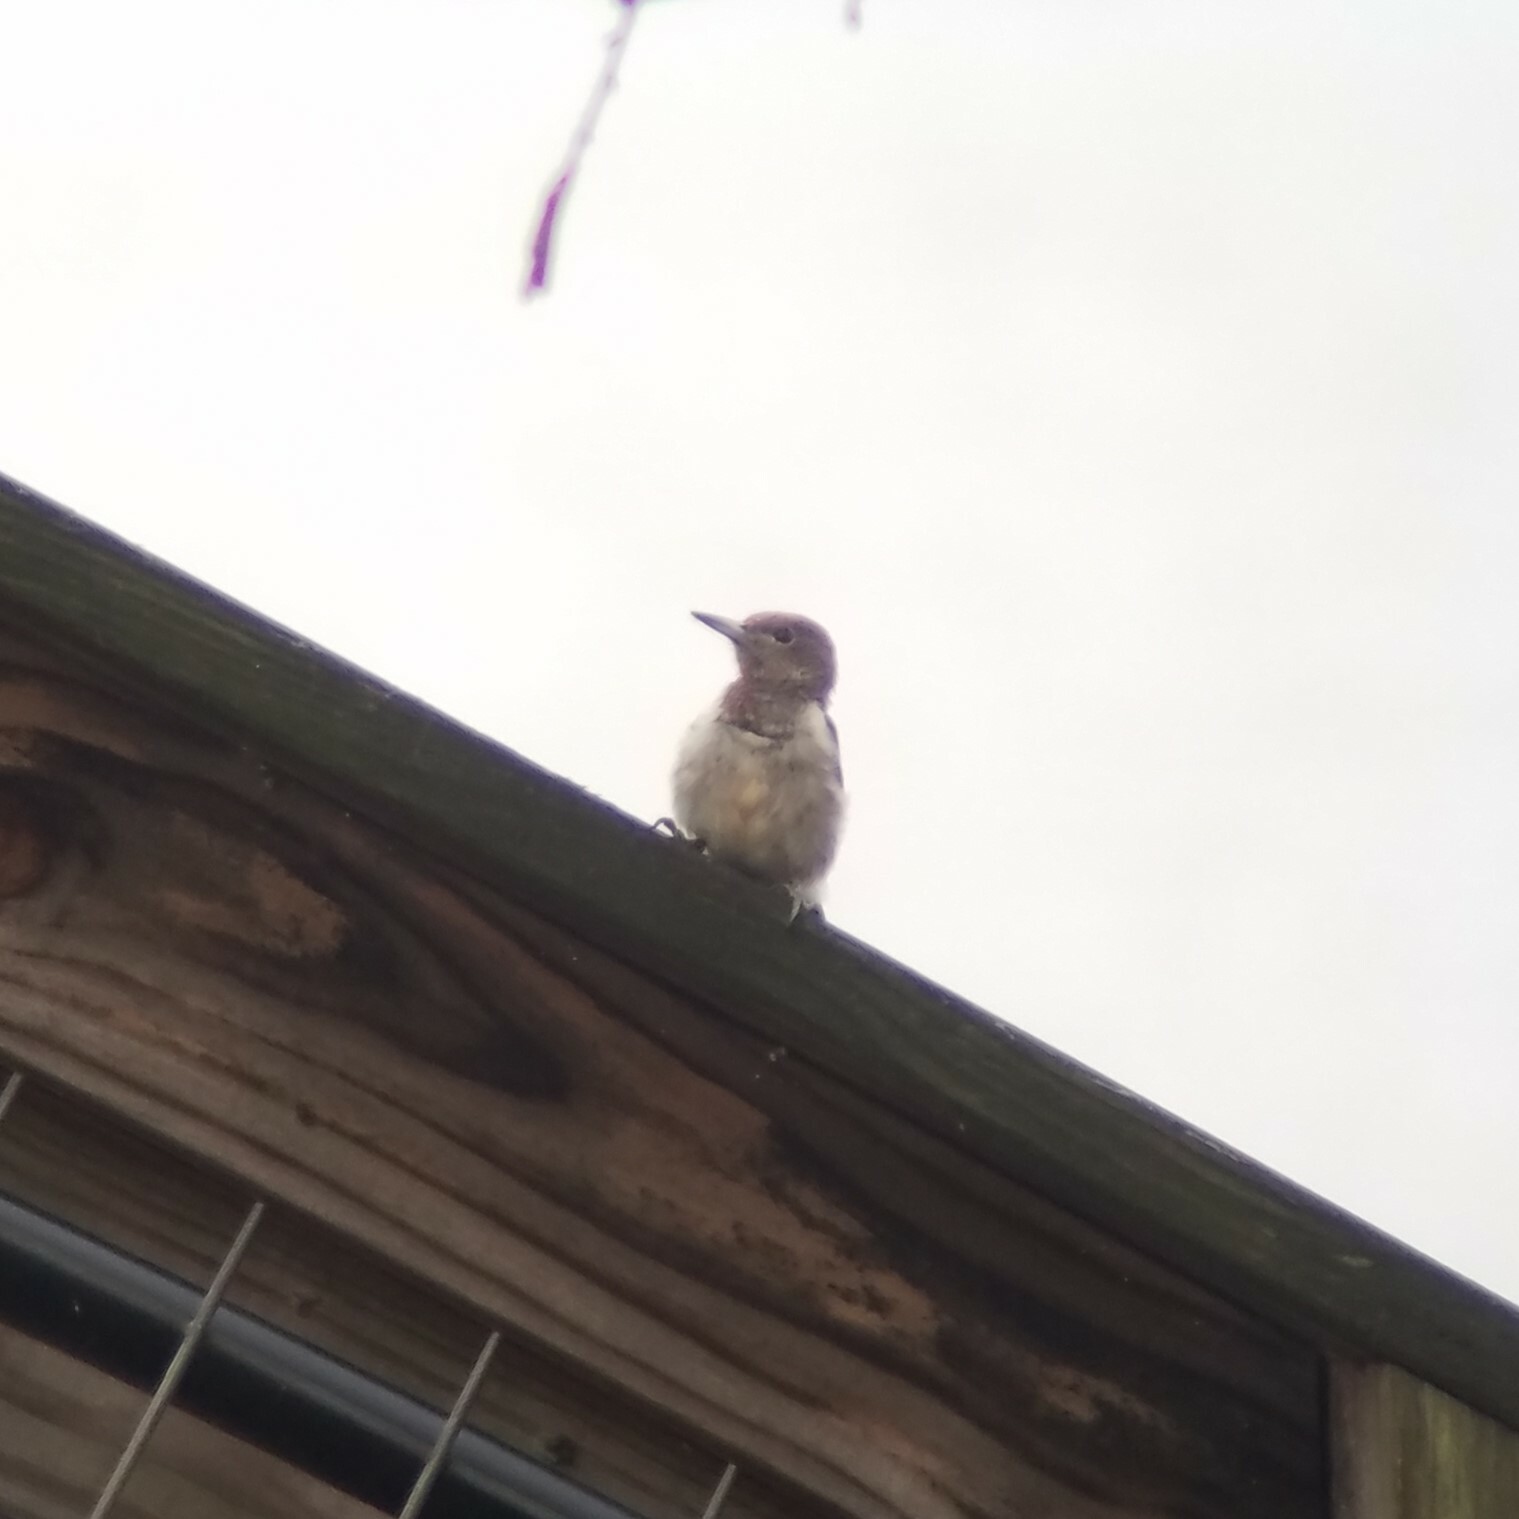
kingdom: Animalia
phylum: Chordata
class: Aves
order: Piciformes
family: Picidae
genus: Melanerpes
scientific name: Melanerpes erythrocephalus
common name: Red-headed woodpecker
